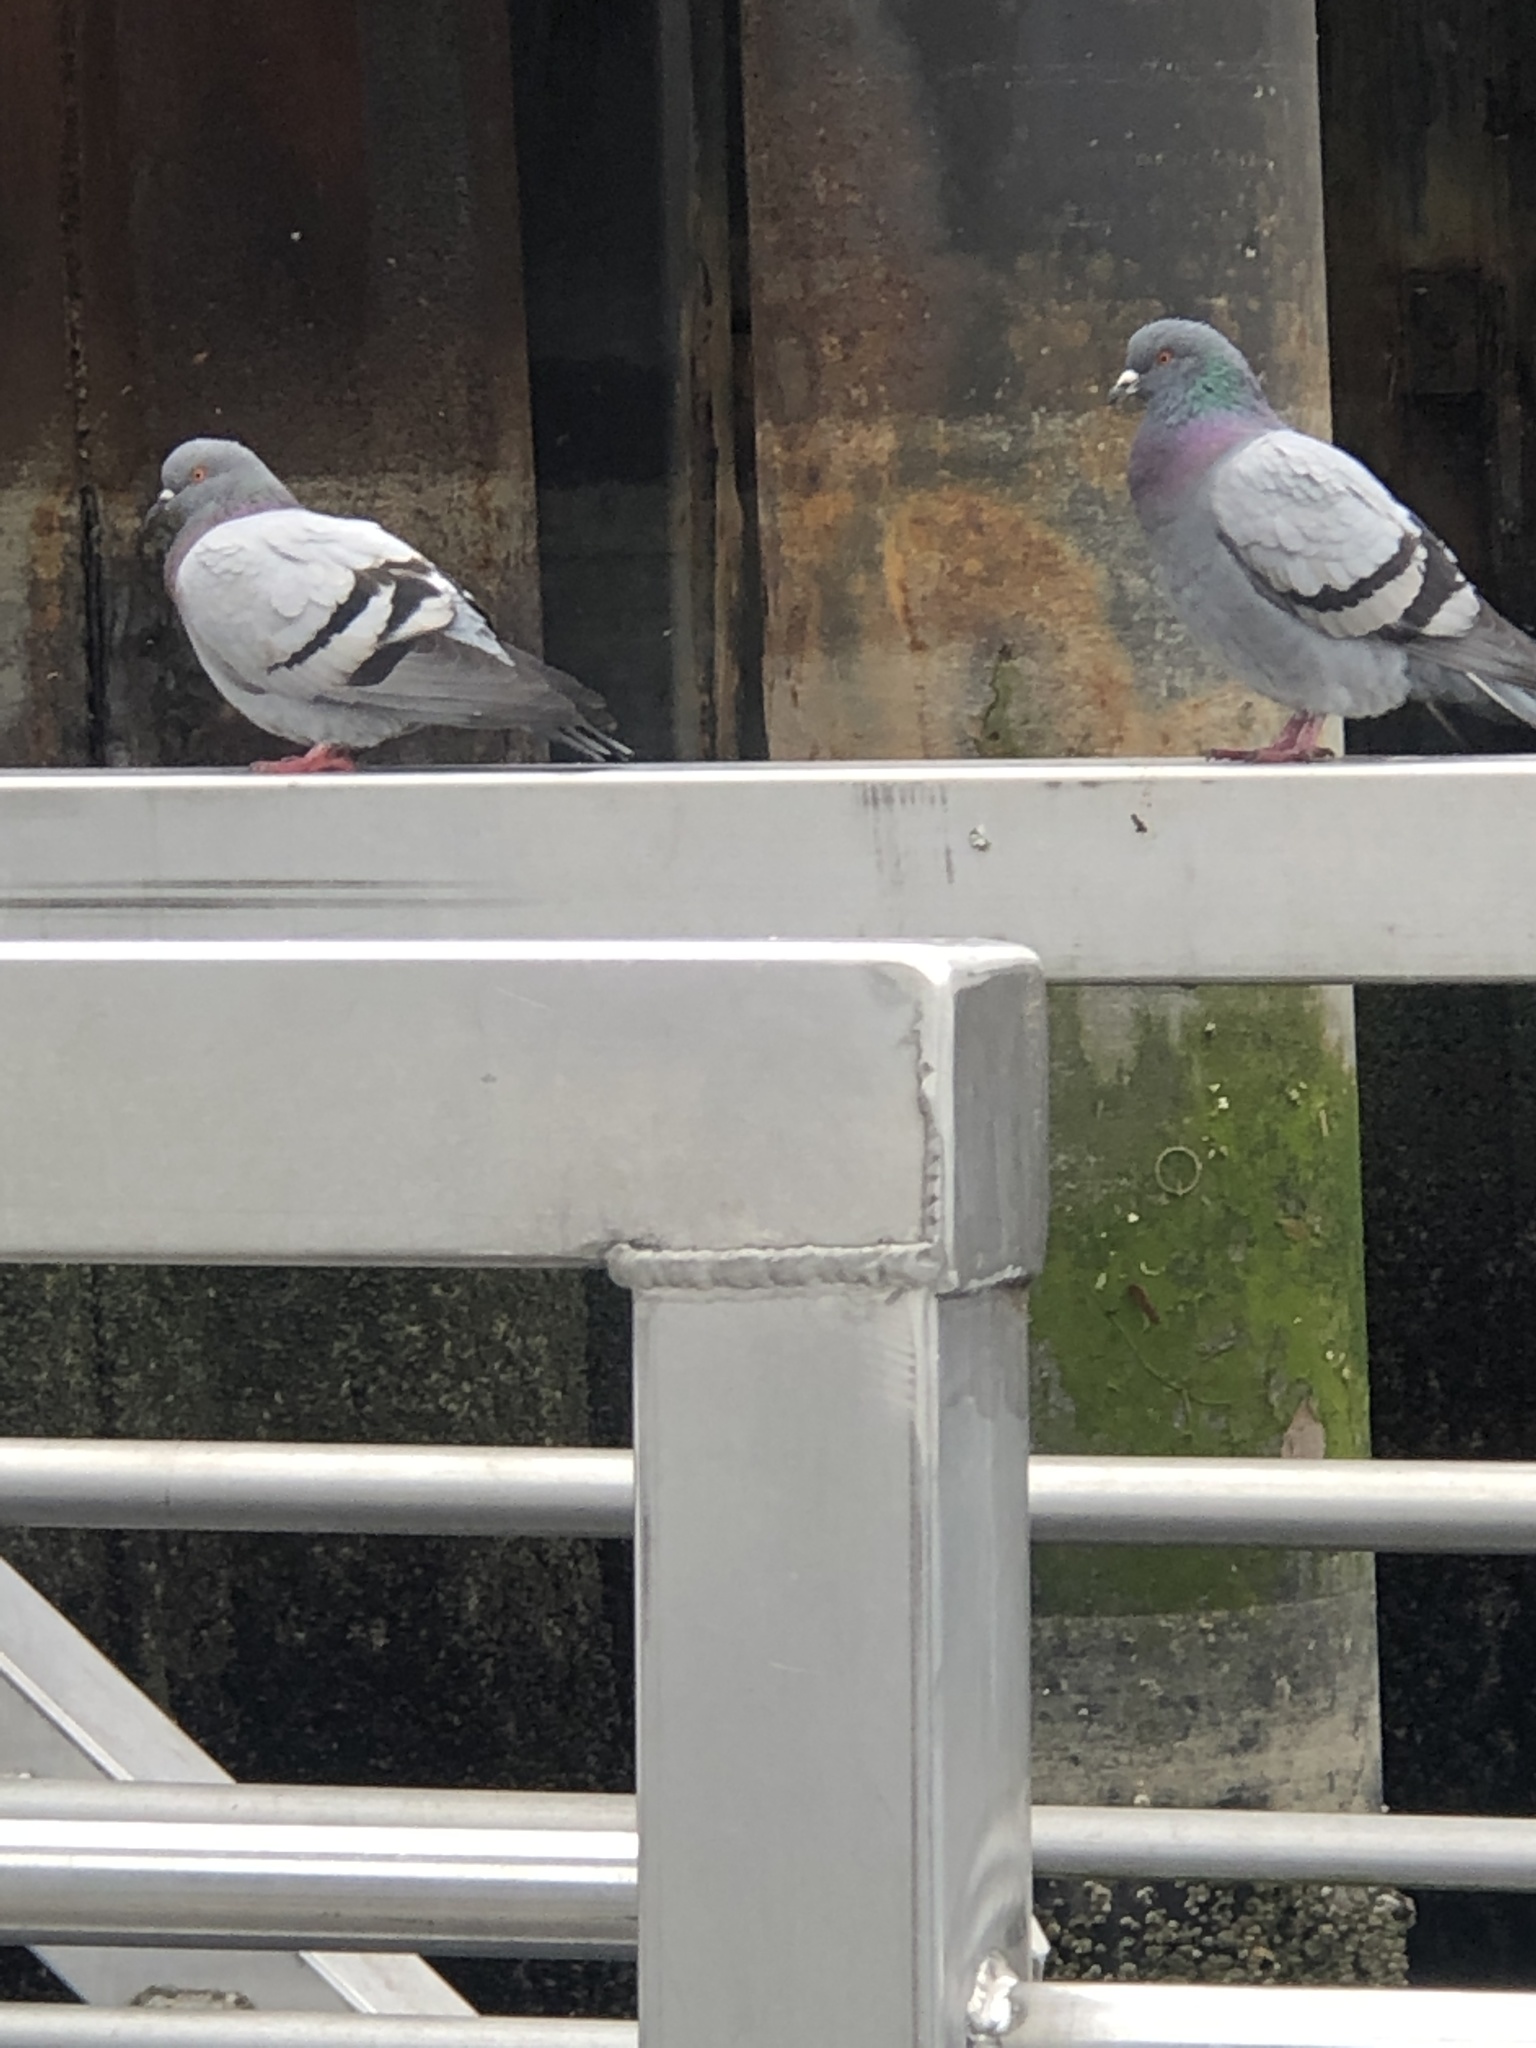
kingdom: Animalia
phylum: Chordata
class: Aves
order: Columbiformes
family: Columbidae
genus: Columba
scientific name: Columba livia
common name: Rock pigeon
